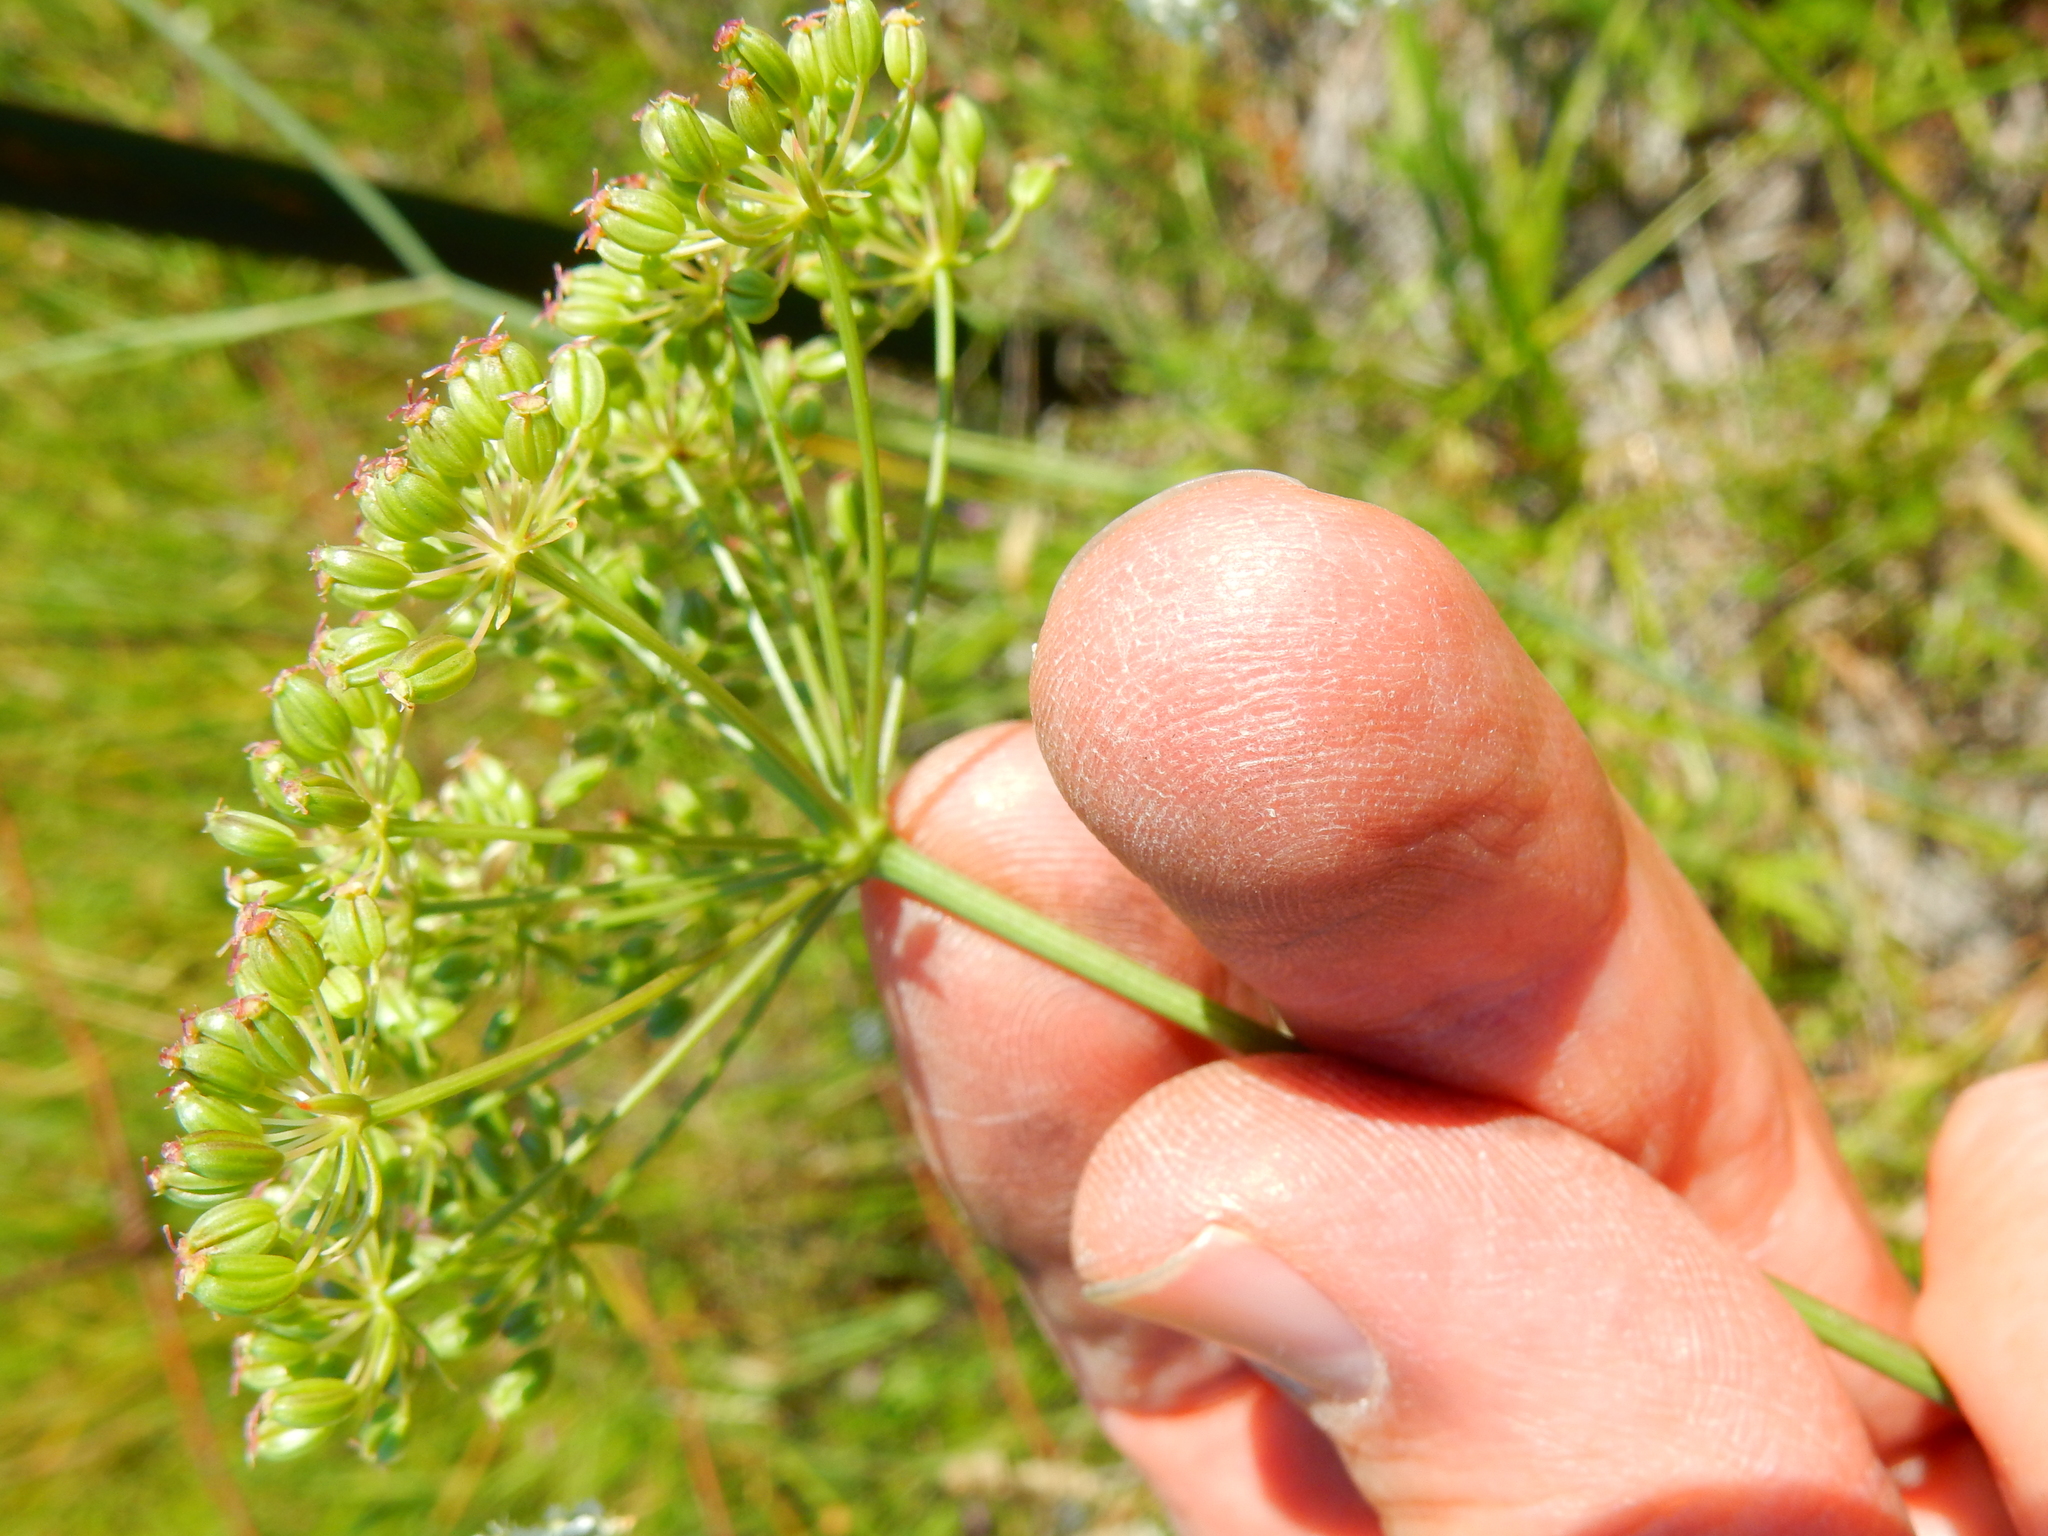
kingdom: Plantae
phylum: Tracheophyta
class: Magnoliopsida
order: Apiales
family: Apiaceae
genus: Perideridia
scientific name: Perideridia oregana
